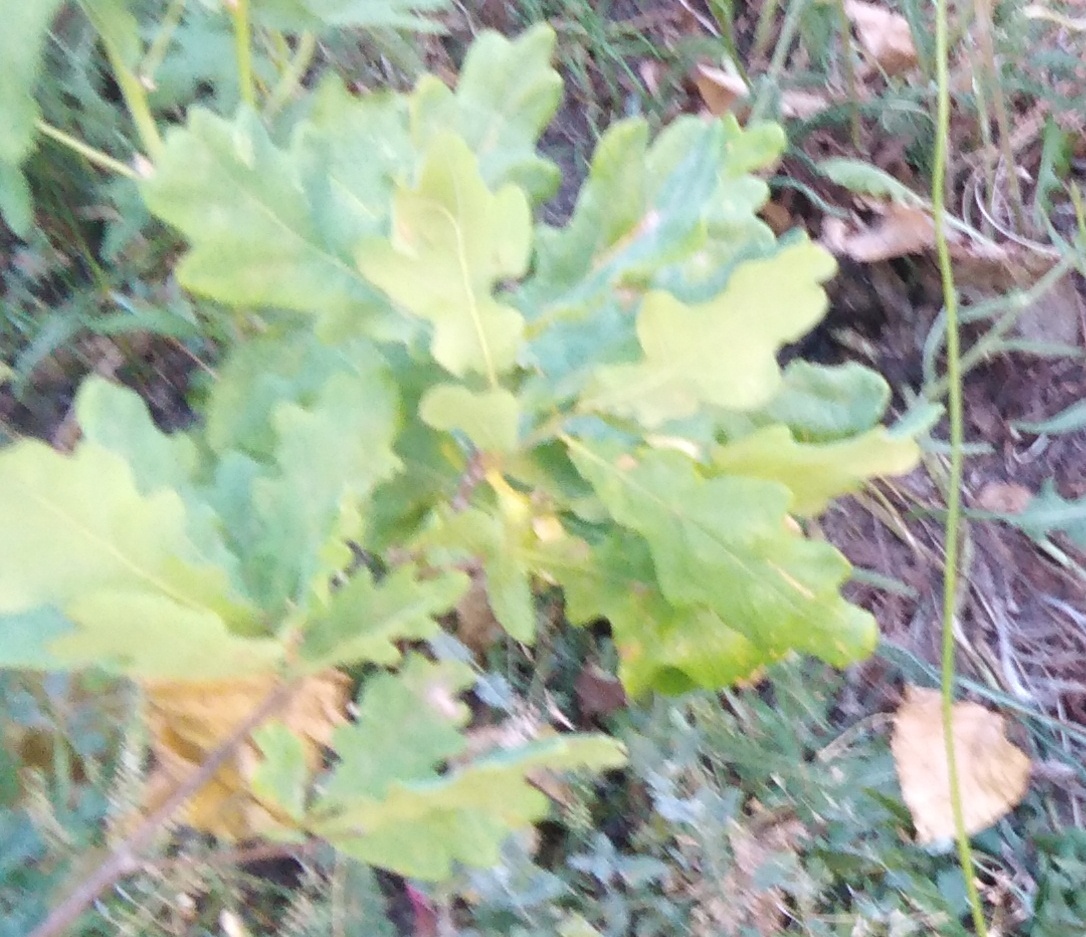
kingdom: Plantae
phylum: Tracheophyta
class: Magnoliopsida
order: Fagales
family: Fagaceae
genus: Quercus
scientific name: Quercus robur
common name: Pedunculate oak
